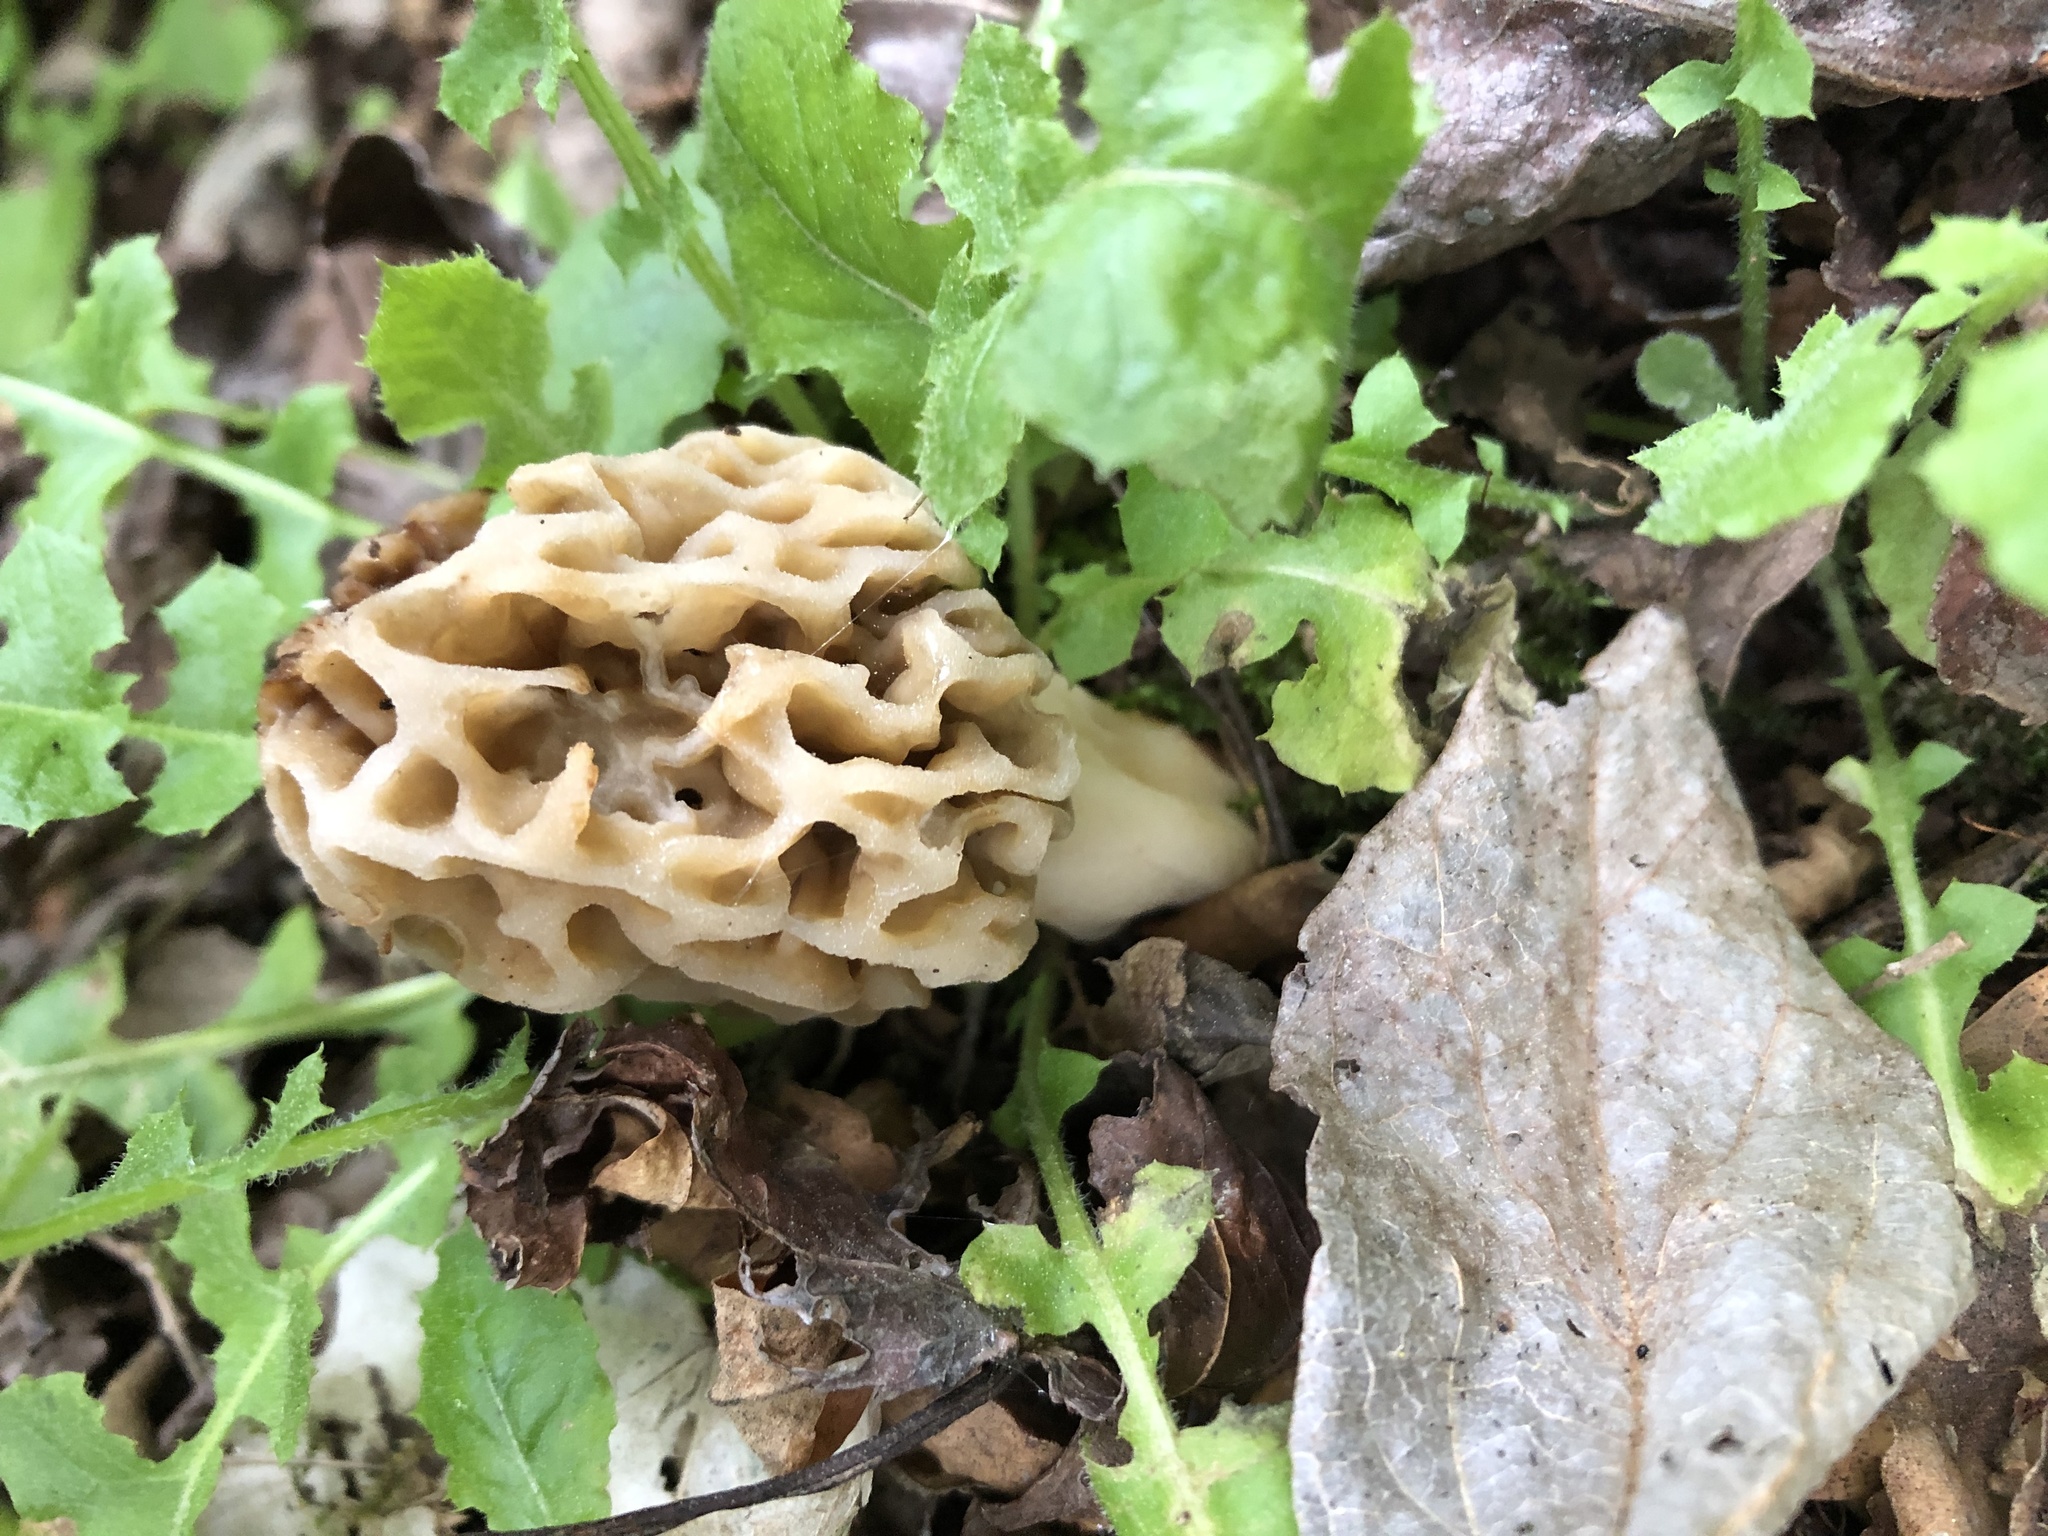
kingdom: Fungi
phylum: Ascomycota
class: Pezizomycetes
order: Pezizales
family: Morchellaceae
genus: Morchella
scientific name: Morchella americana
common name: White morel
